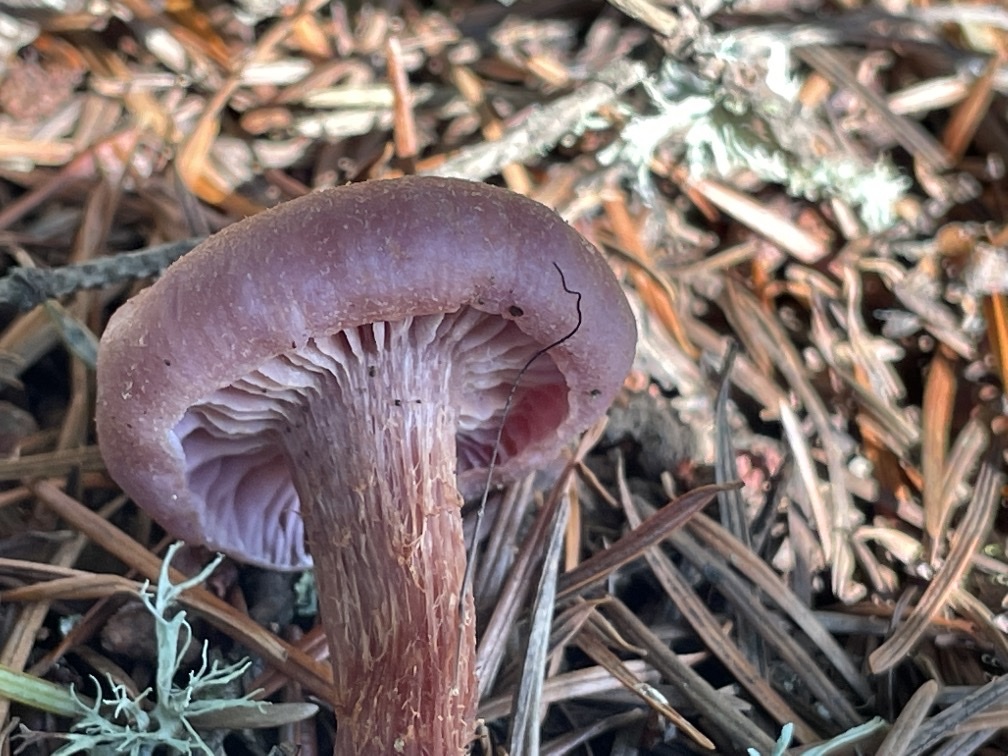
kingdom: Fungi
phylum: Basidiomycota
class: Agaricomycetes
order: Agaricales
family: Hydnangiaceae
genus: Laccaria
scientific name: Laccaria amethysteo-occidentalis
